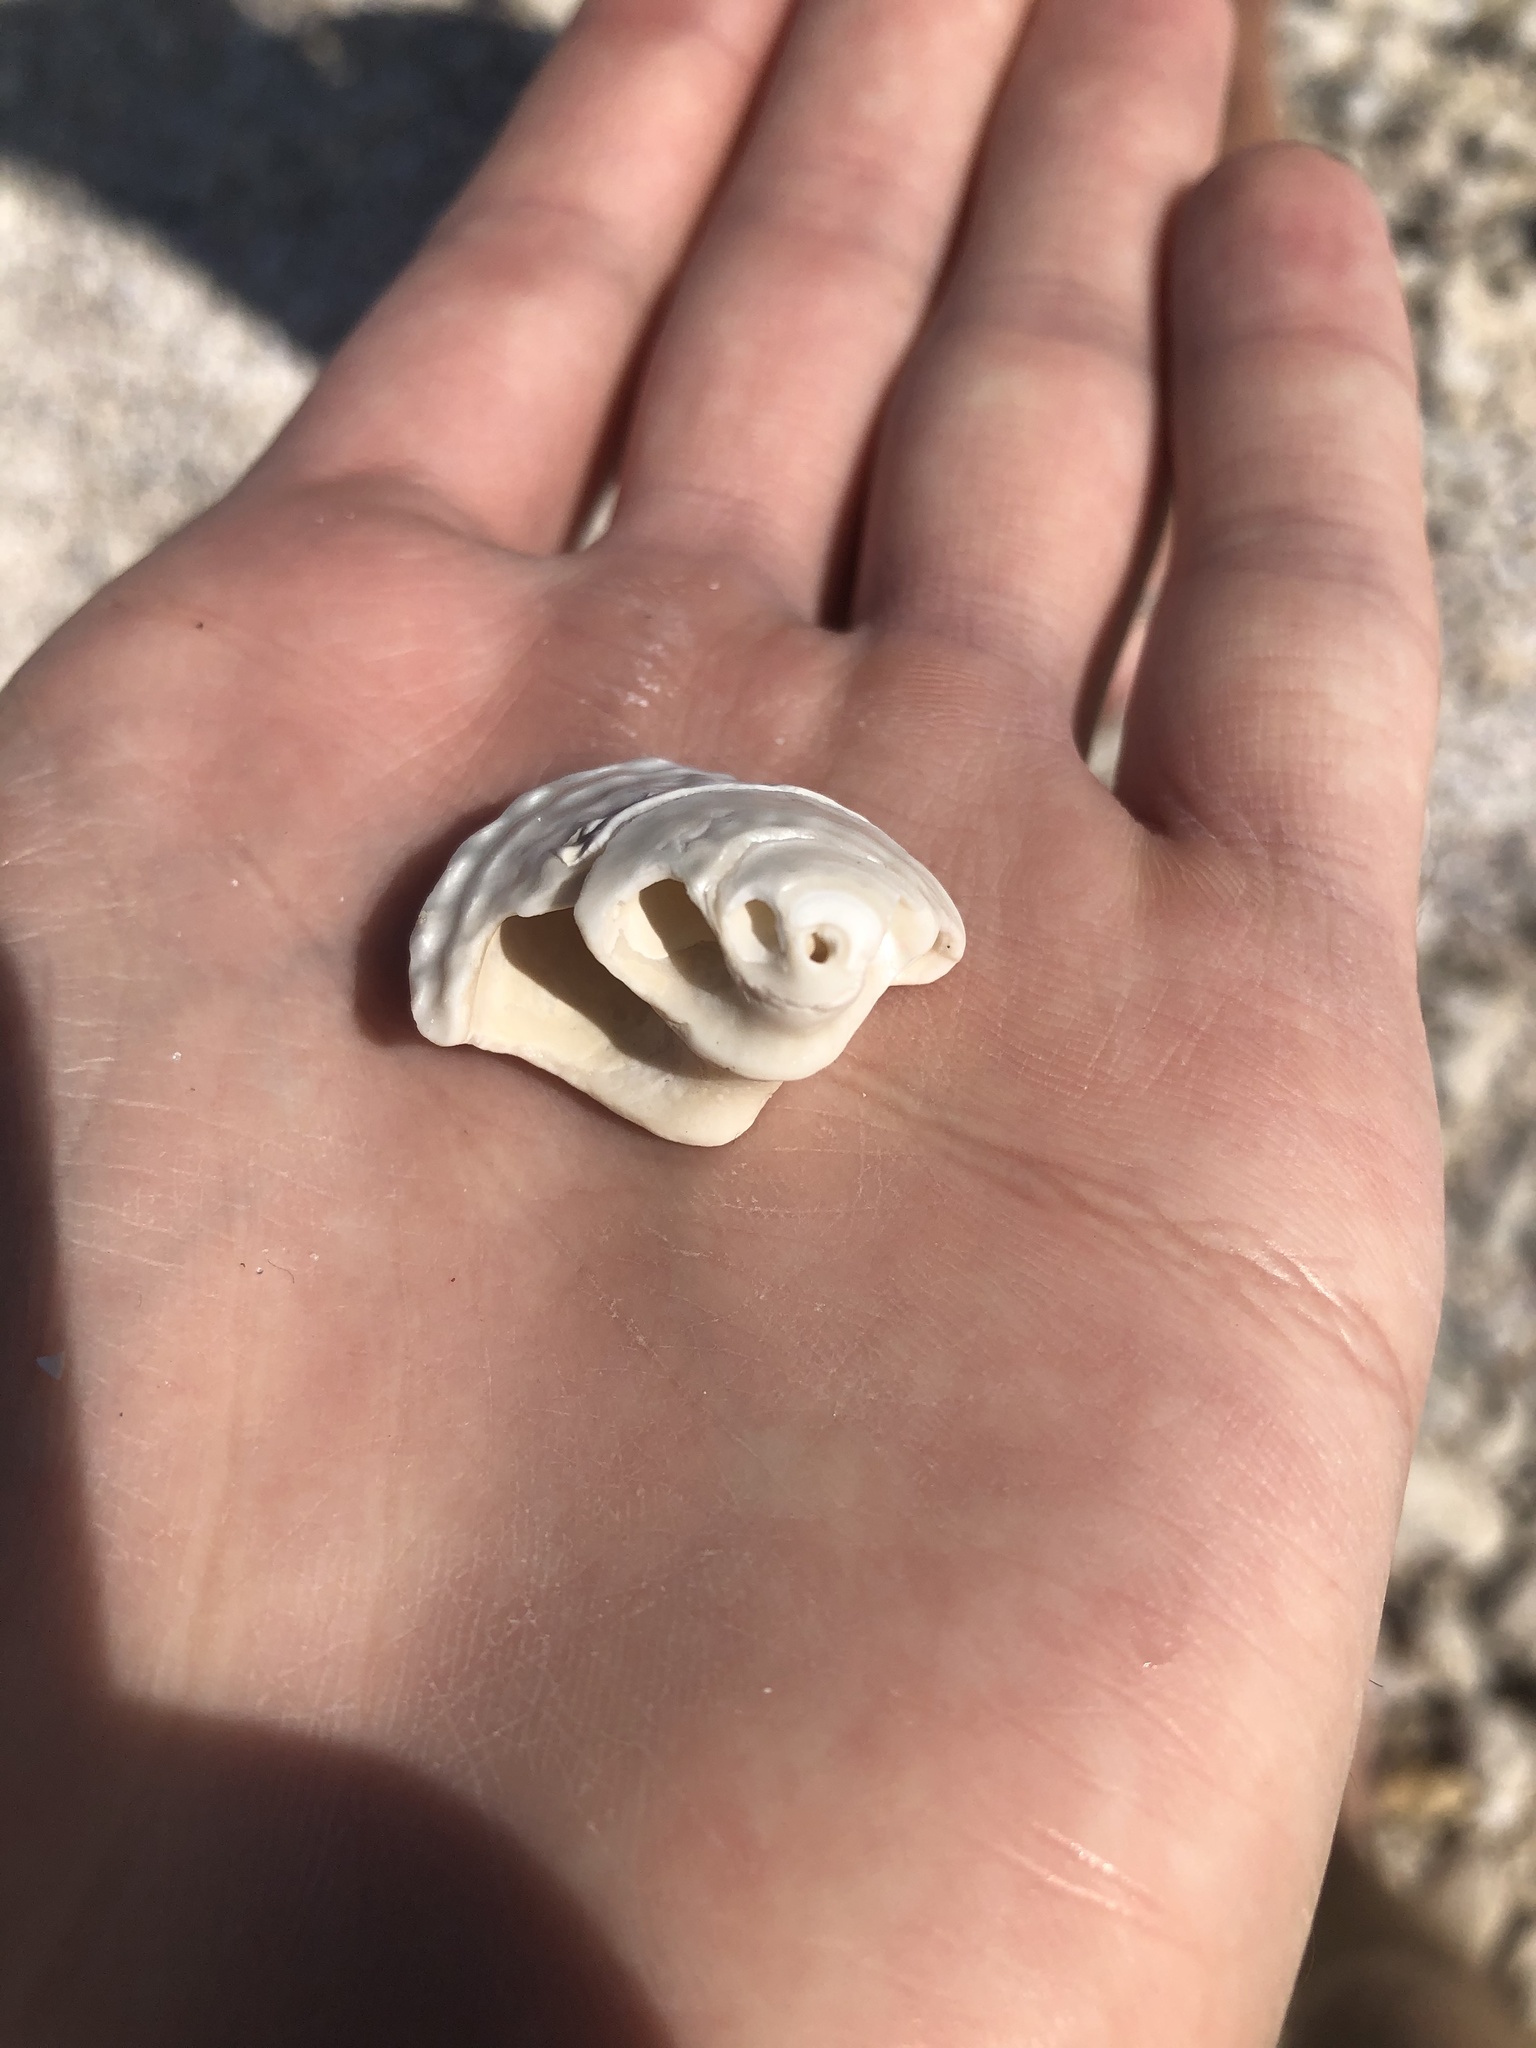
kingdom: Animalia
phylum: Mollusca
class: Gastropoda
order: Trochida
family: Turbinidae
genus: Lithopoma
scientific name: Lithopoma phoebium
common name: Long-spined starsnail
